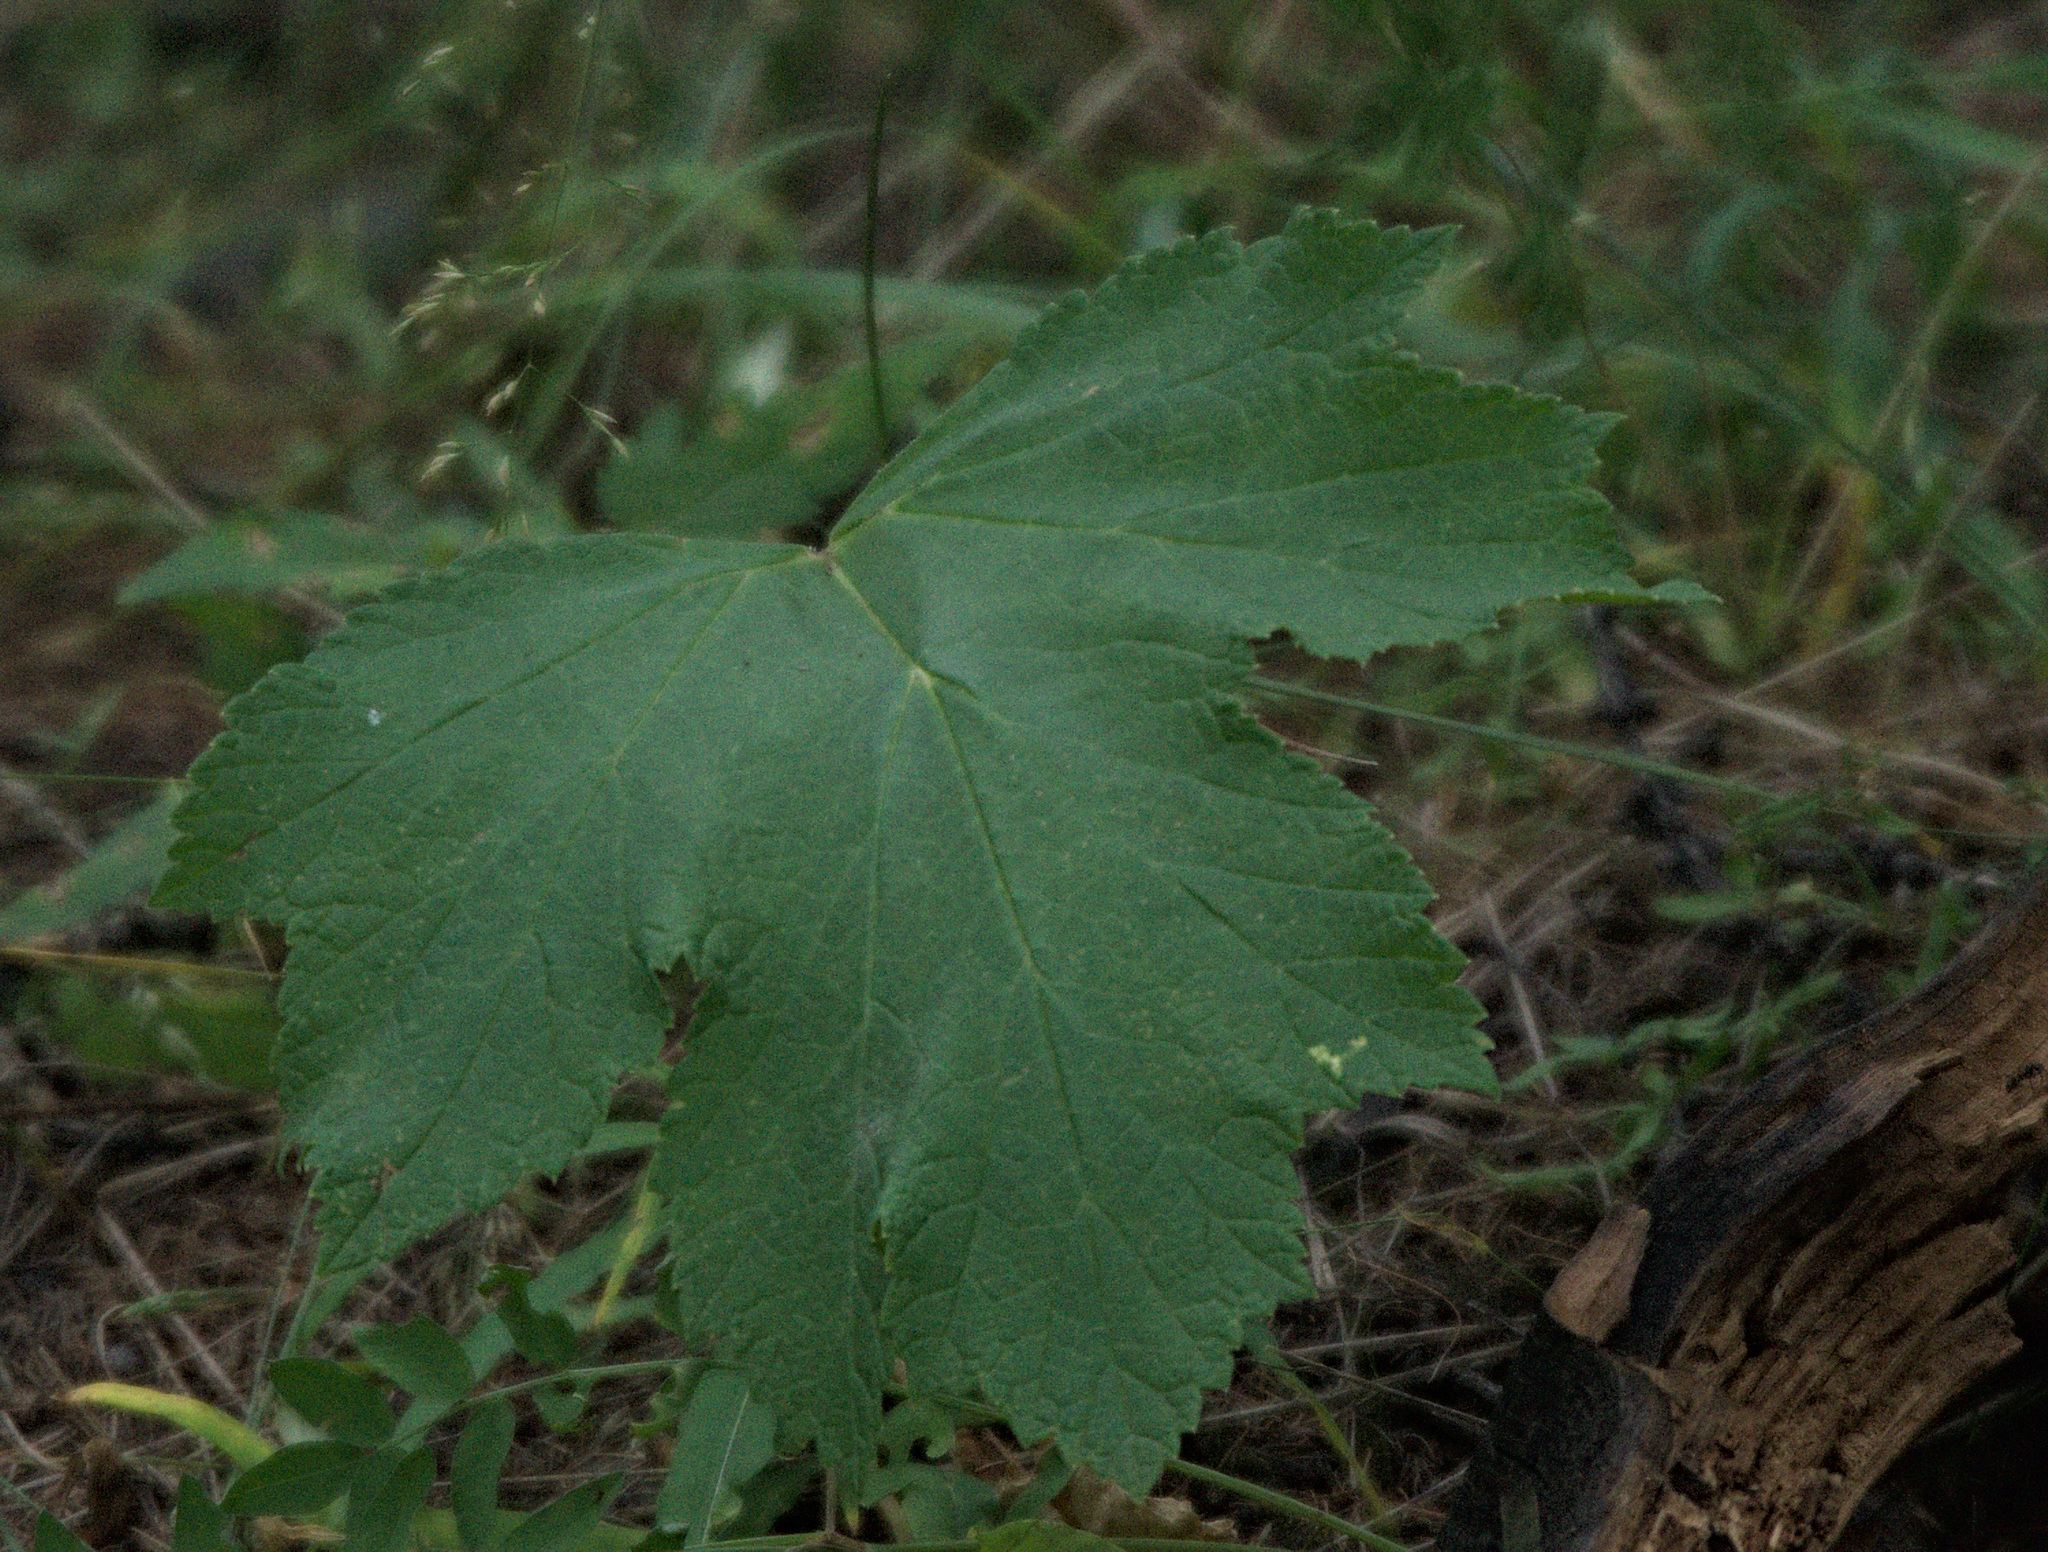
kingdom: Plantae
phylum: Tracheophyta
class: Magnoliopsida
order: Apiales
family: Apiaceae
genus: Heracleum
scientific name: Heracleum dissectum
